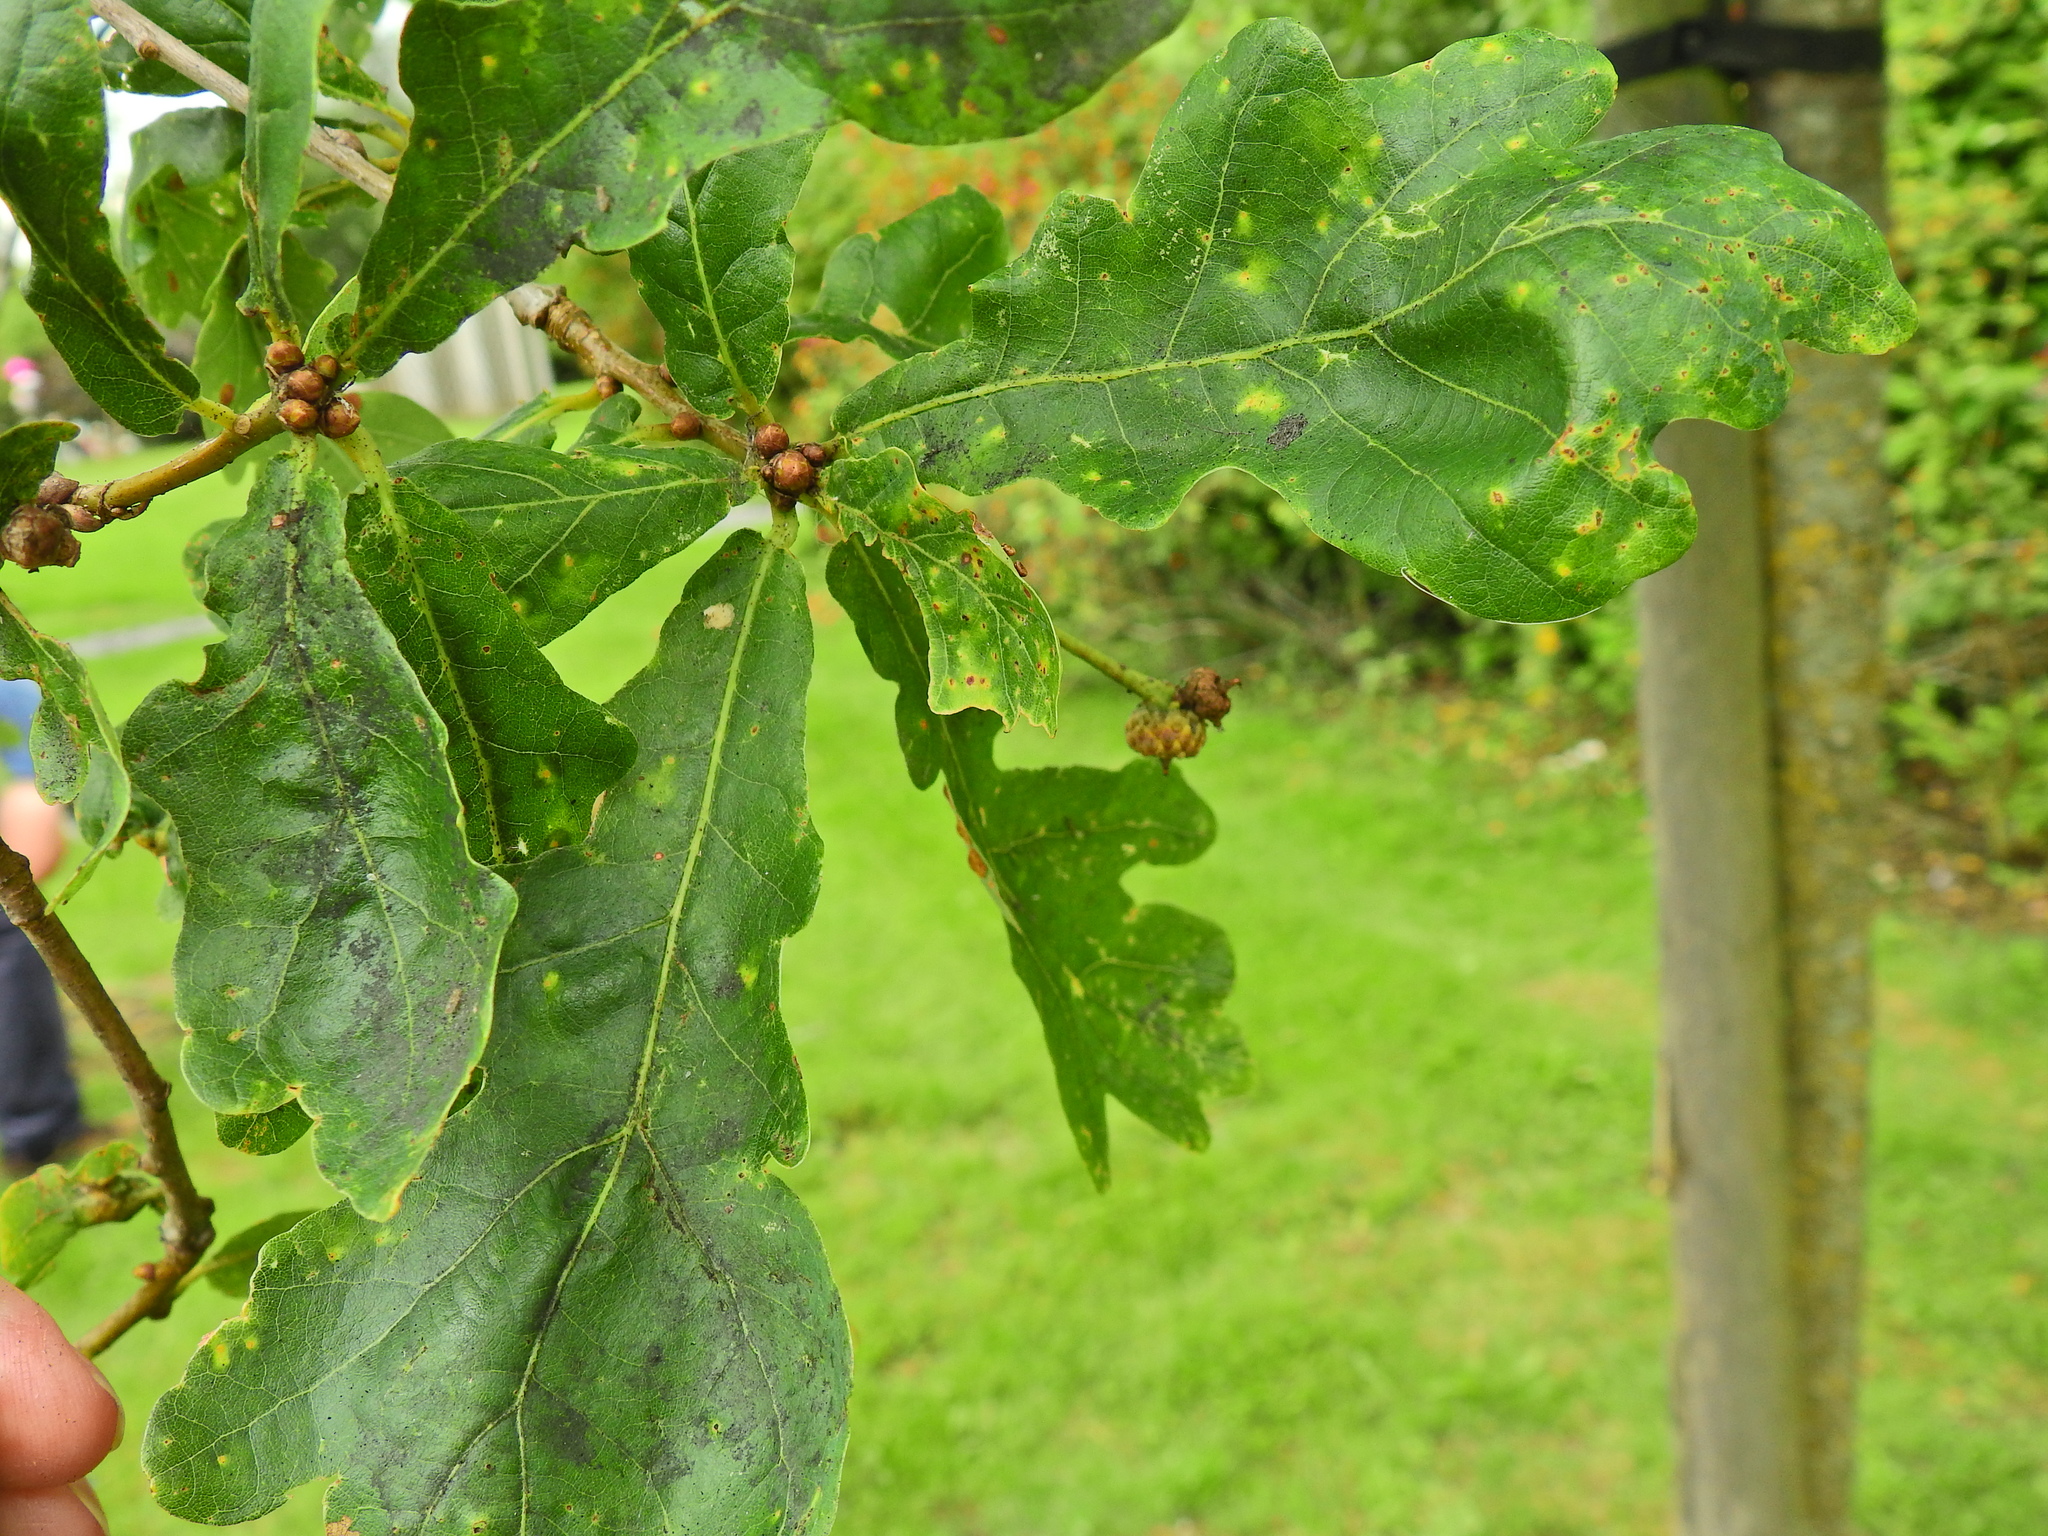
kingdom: Plantae
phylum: Tracheophyta
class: Magnoliopsida
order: Fagales
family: Fagaceae
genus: Quercus
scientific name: Quercus robur
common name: Pedunculate oak
